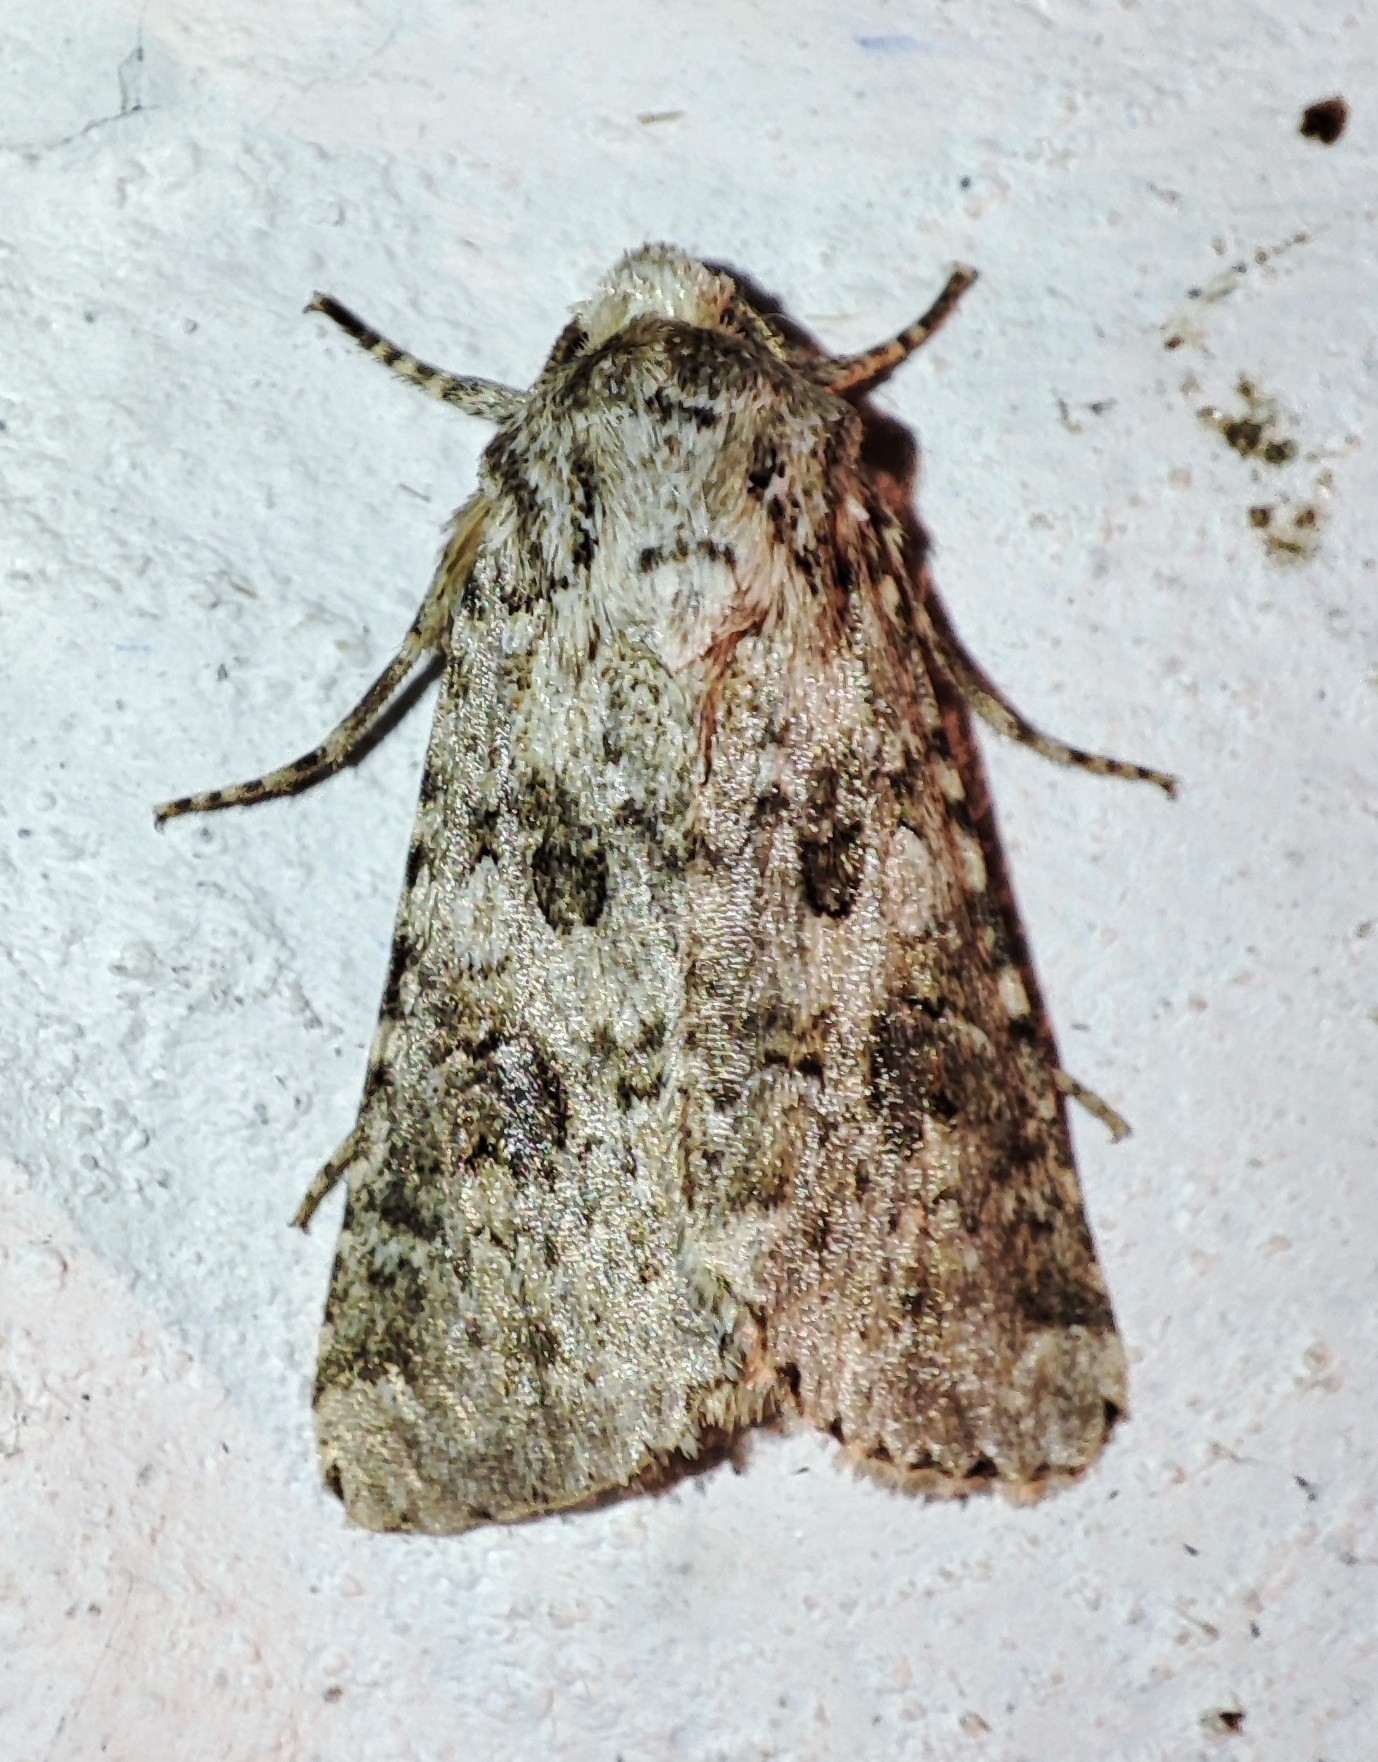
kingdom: Animalia
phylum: Arthropoda
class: Insecta
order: Lepidoptera
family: Noctuidae
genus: Anarta
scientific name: Anarta stigmosa
